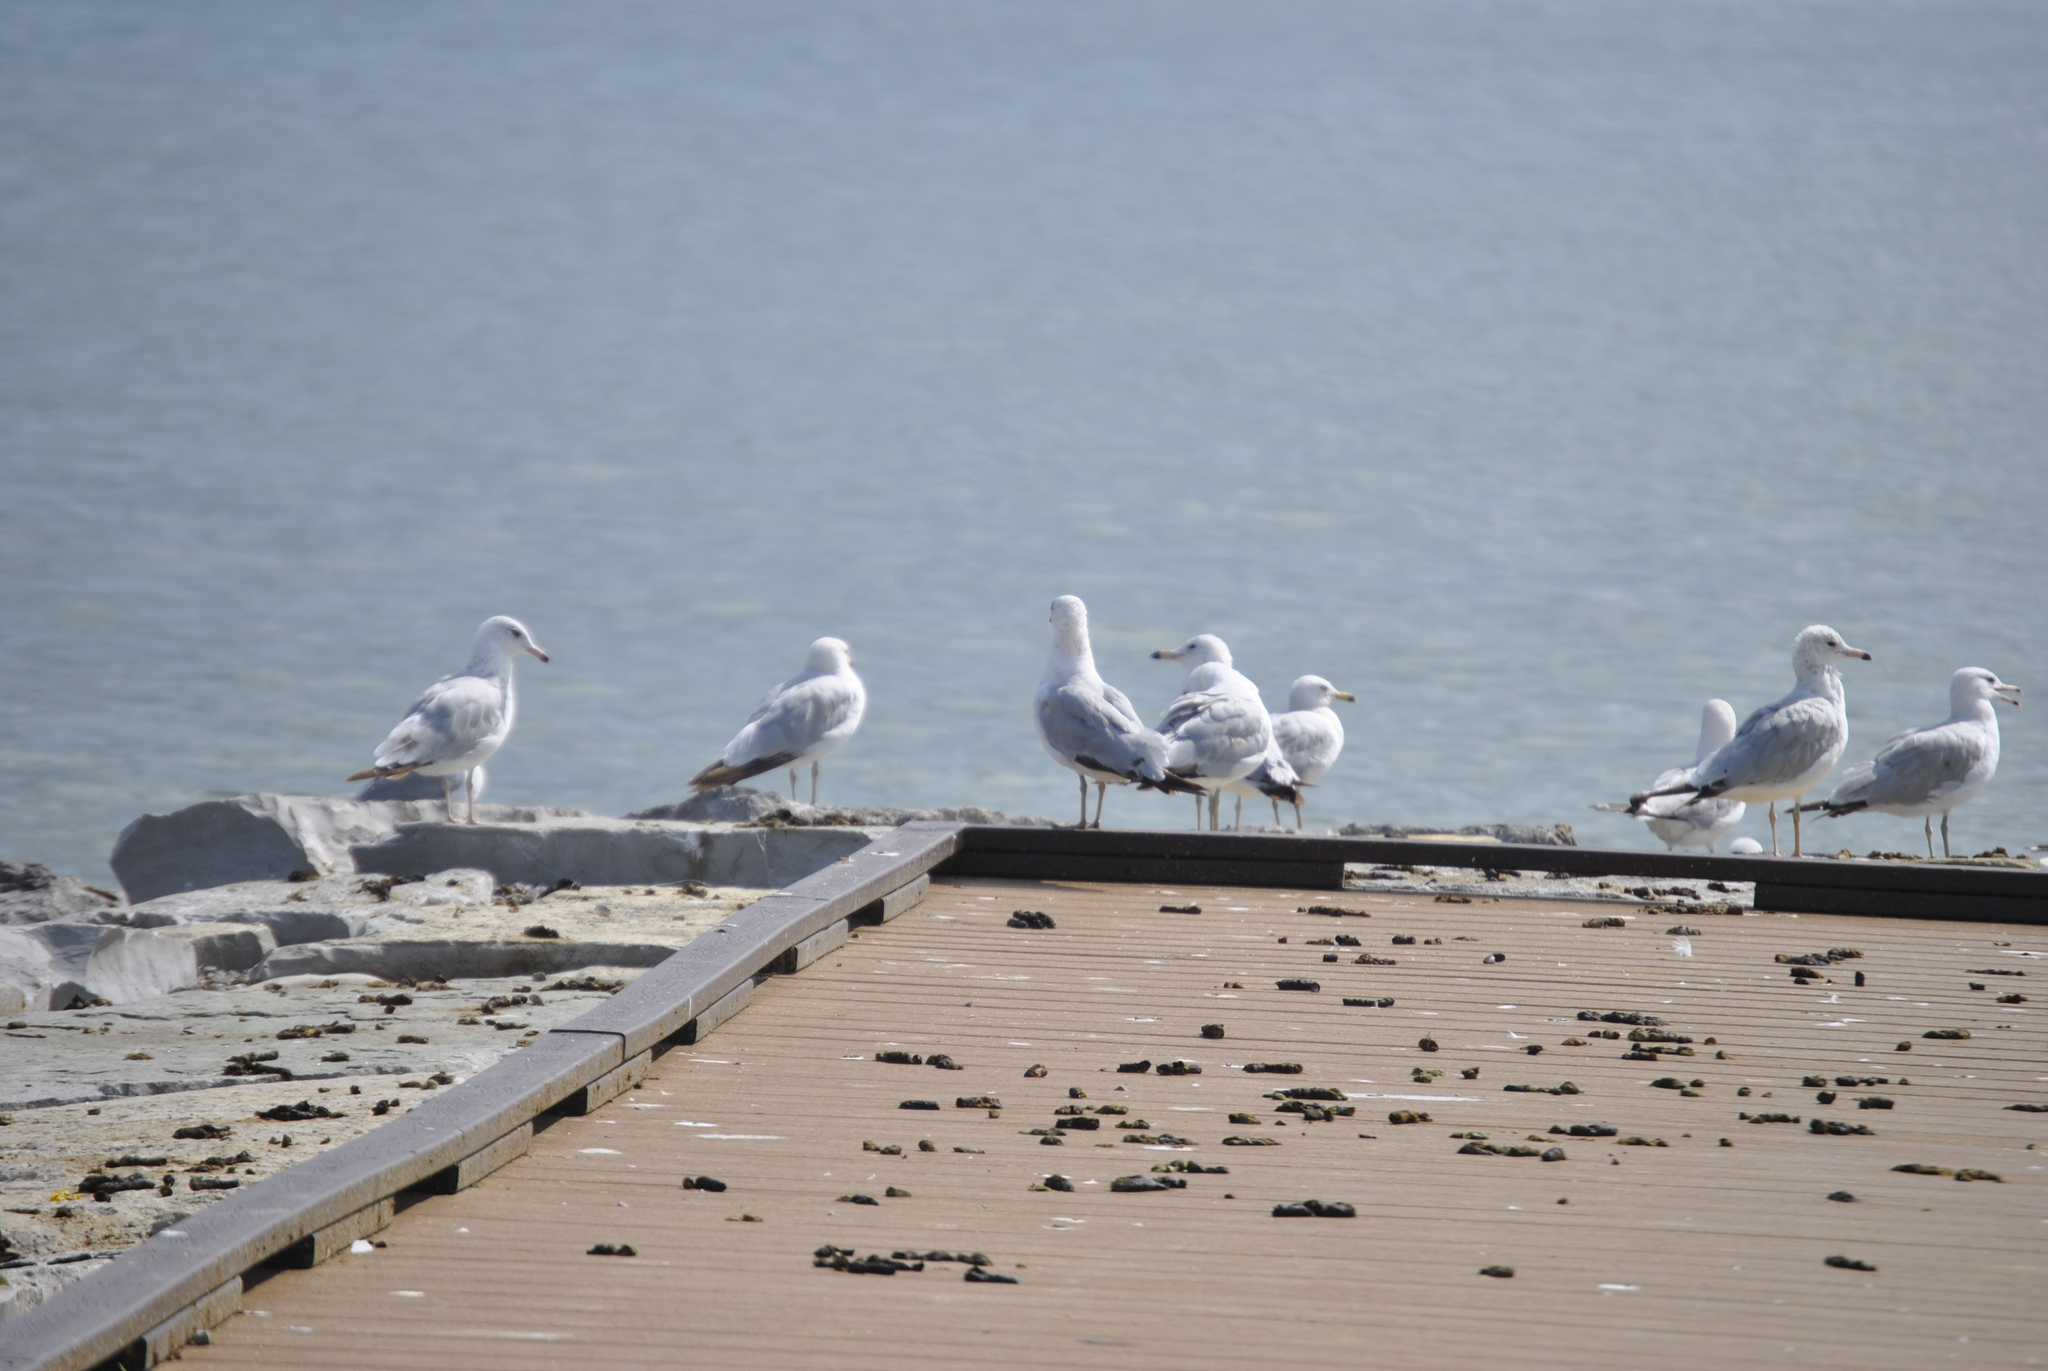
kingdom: Animalia
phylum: Chordata
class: Aves
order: Charadriiformes
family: Laridae
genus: Larus
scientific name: Larus delawarensis
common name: Ring-billed gull
